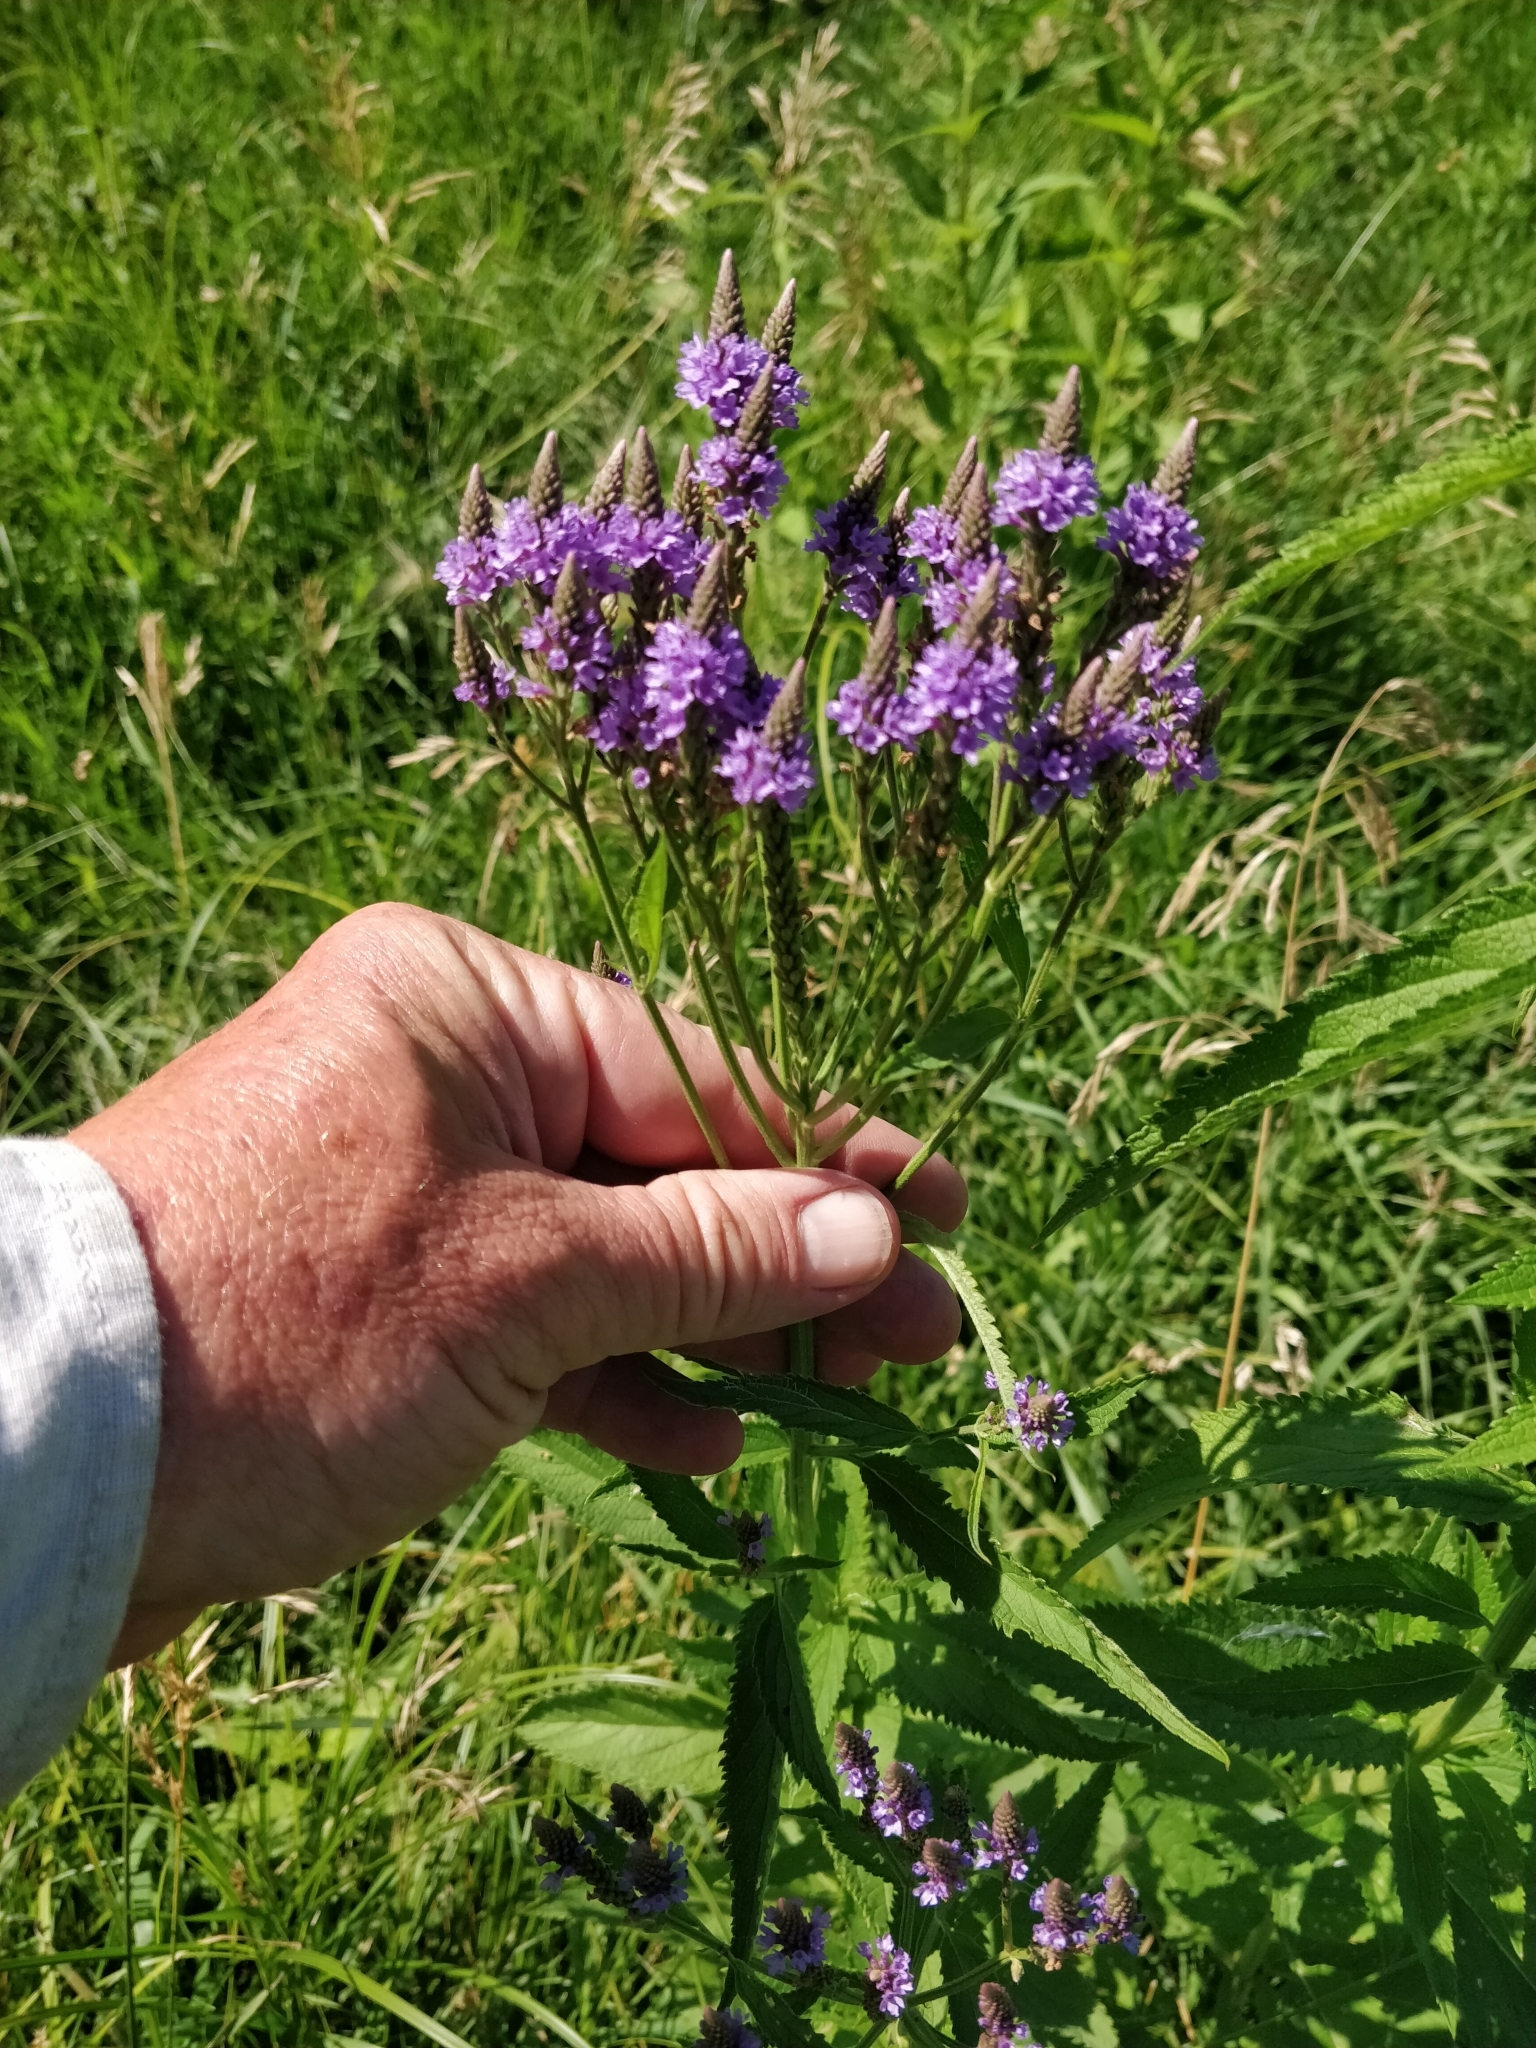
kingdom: Plantae
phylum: Tracheophyta
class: Magnoliopsida
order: Lamiales
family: Verbenaceae
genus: Verbena
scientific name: Verbena hastata
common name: American blue vervain
